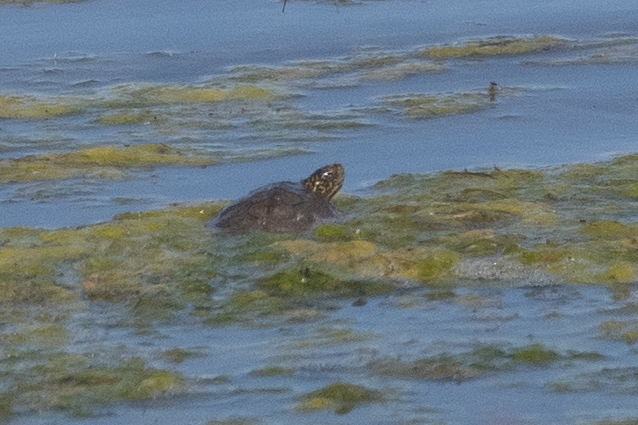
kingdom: Animalia
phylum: Chordata
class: Testudines
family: Emydidae
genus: Actinemys
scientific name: Actinemys marmorata
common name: Western pond turtle
